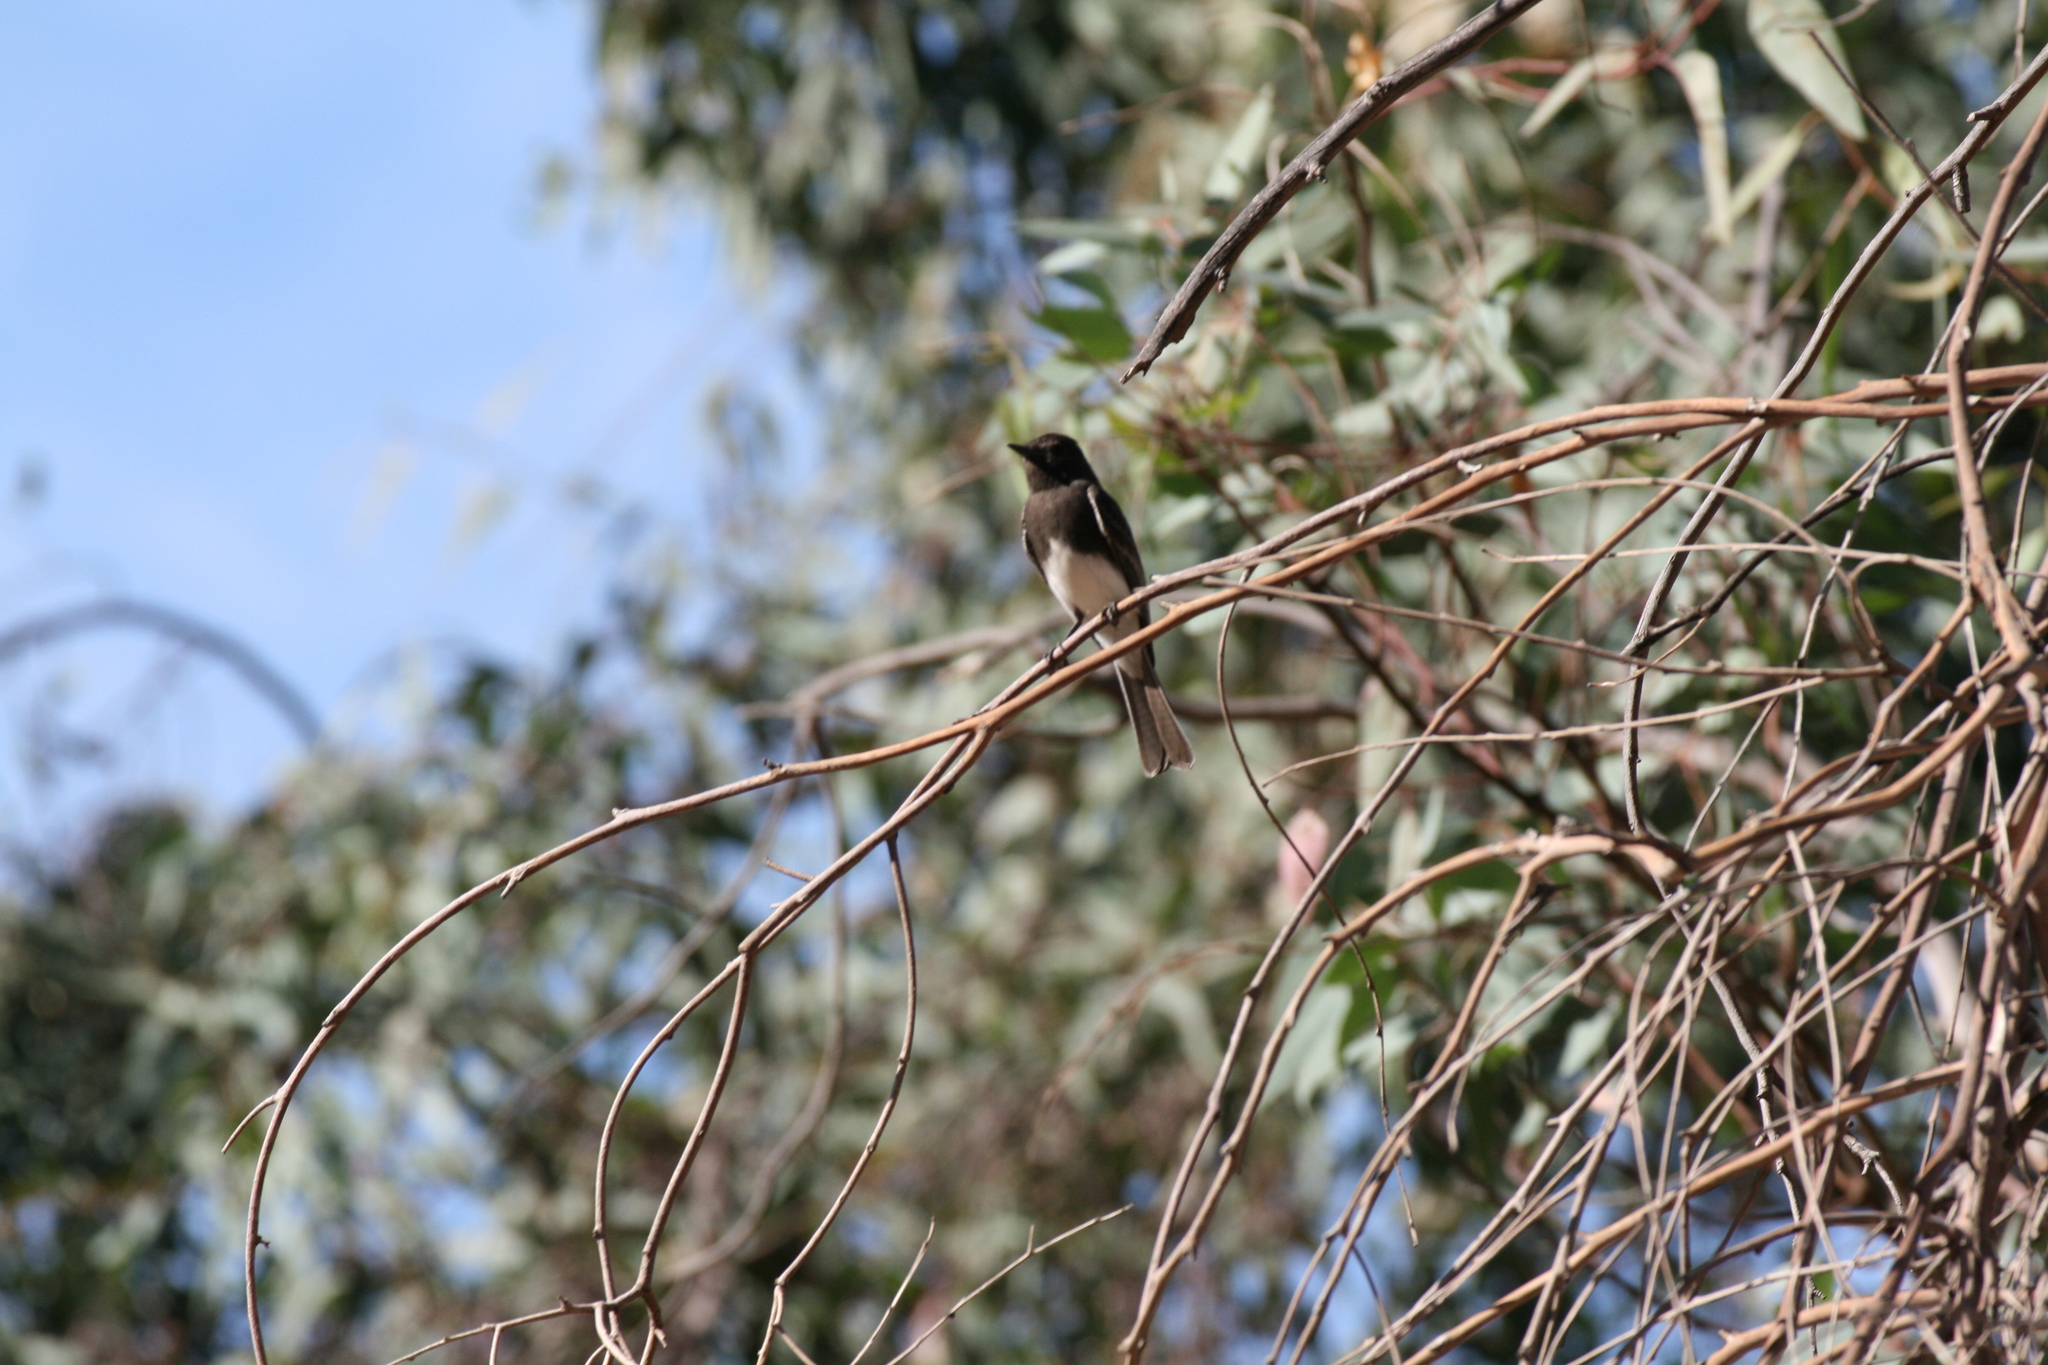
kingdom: Animalia
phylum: Chordata
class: Aves
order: Passeriformes
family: Tyrannidae
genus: Sayornis
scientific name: Sayornis nigricans
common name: Black phoebe
